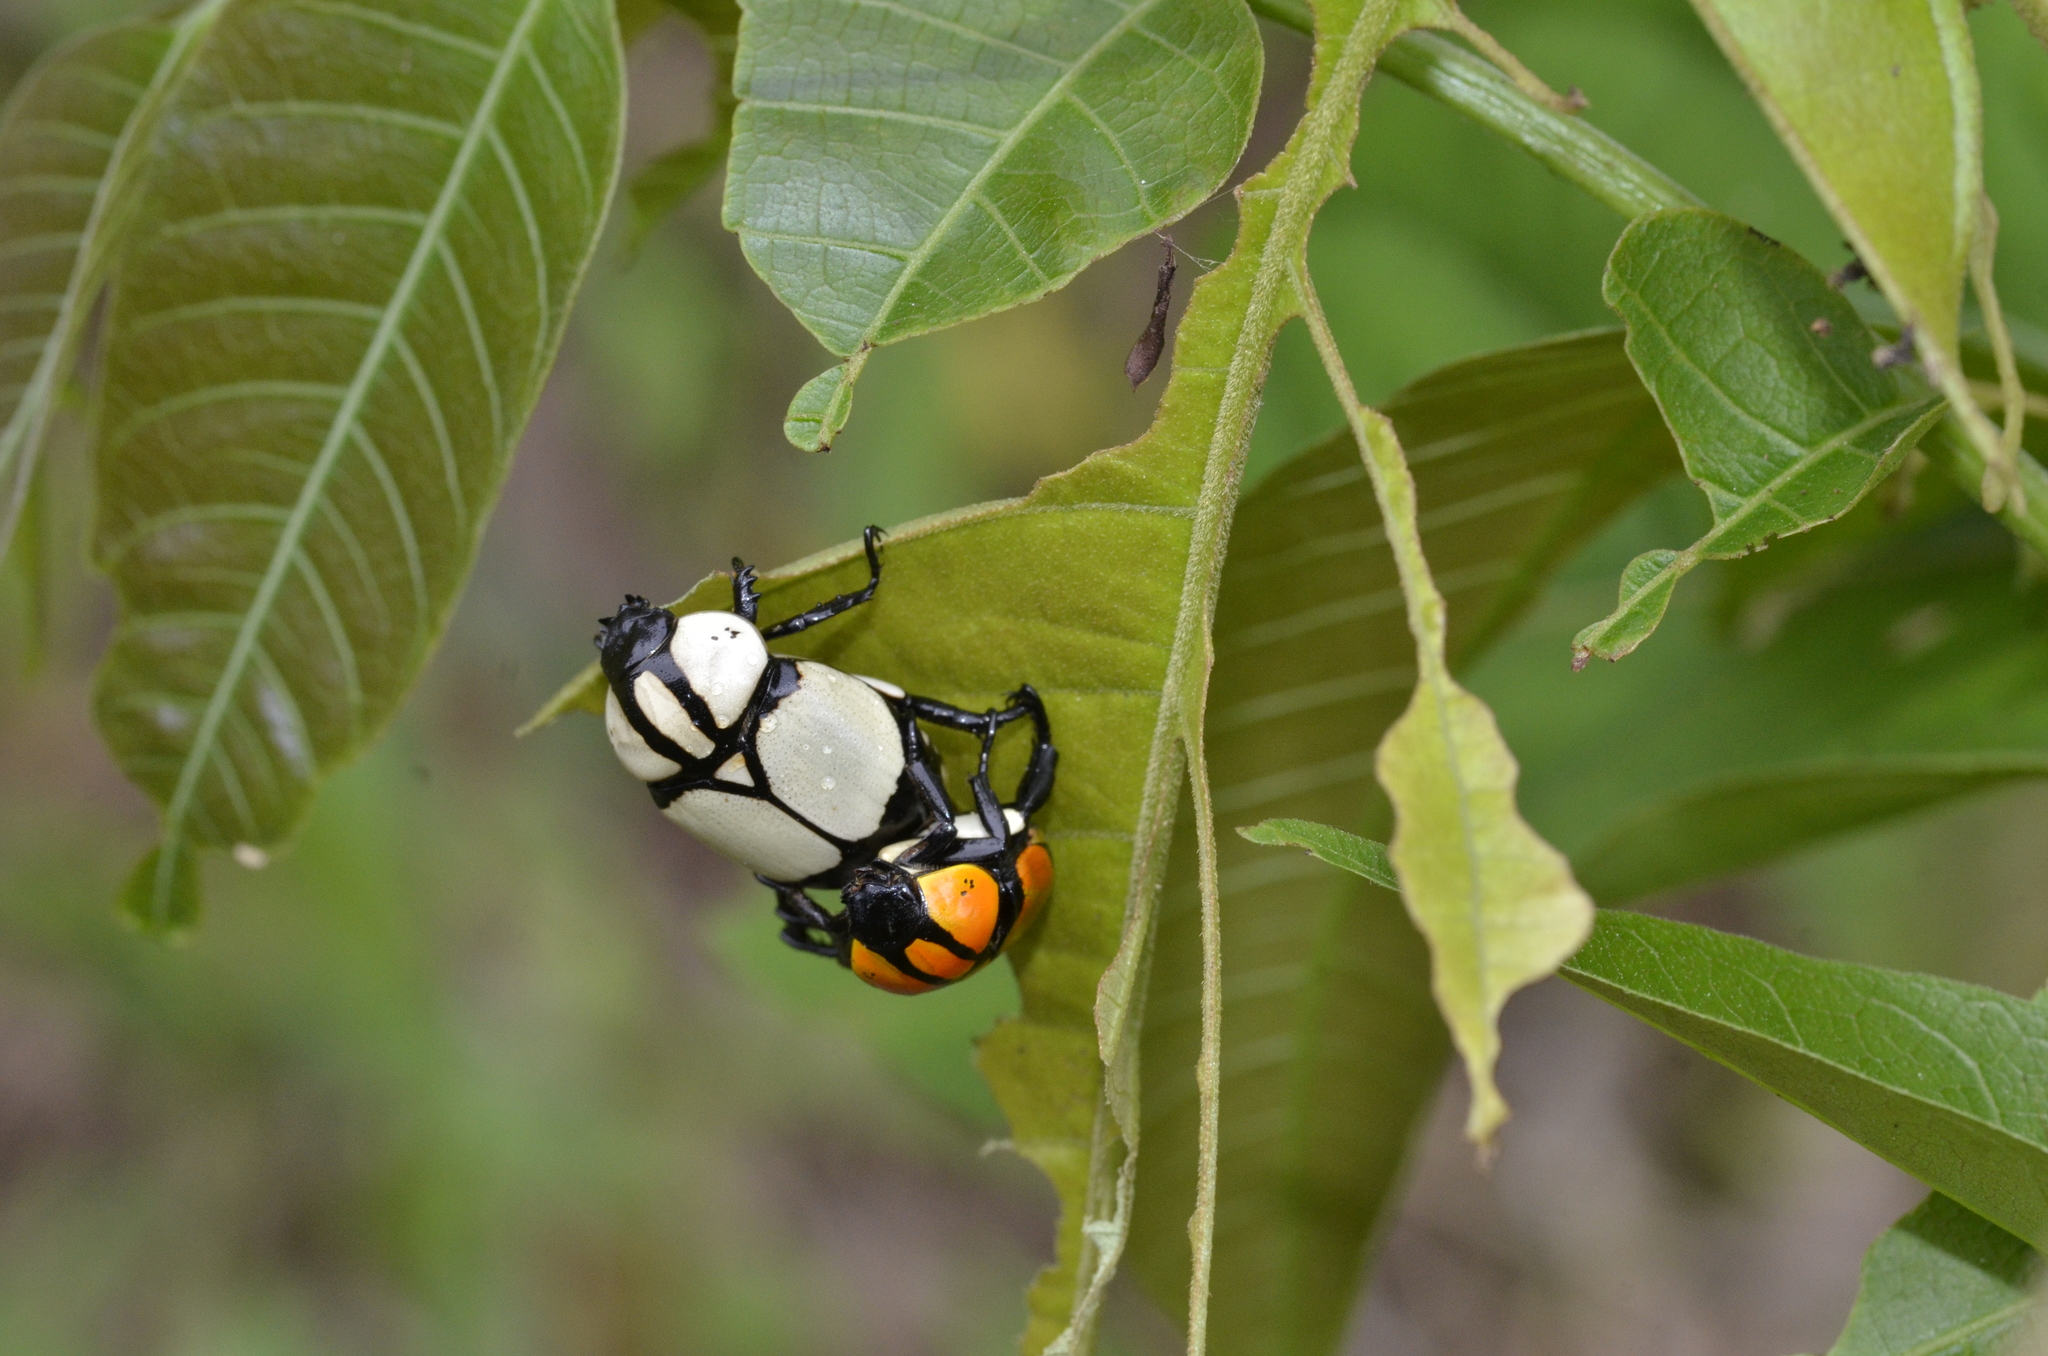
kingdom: Animalia
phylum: Arthropoda
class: Insecta
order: Coleoptera
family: Scarabaeidae
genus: Rutela
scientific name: Rutela heraldica
